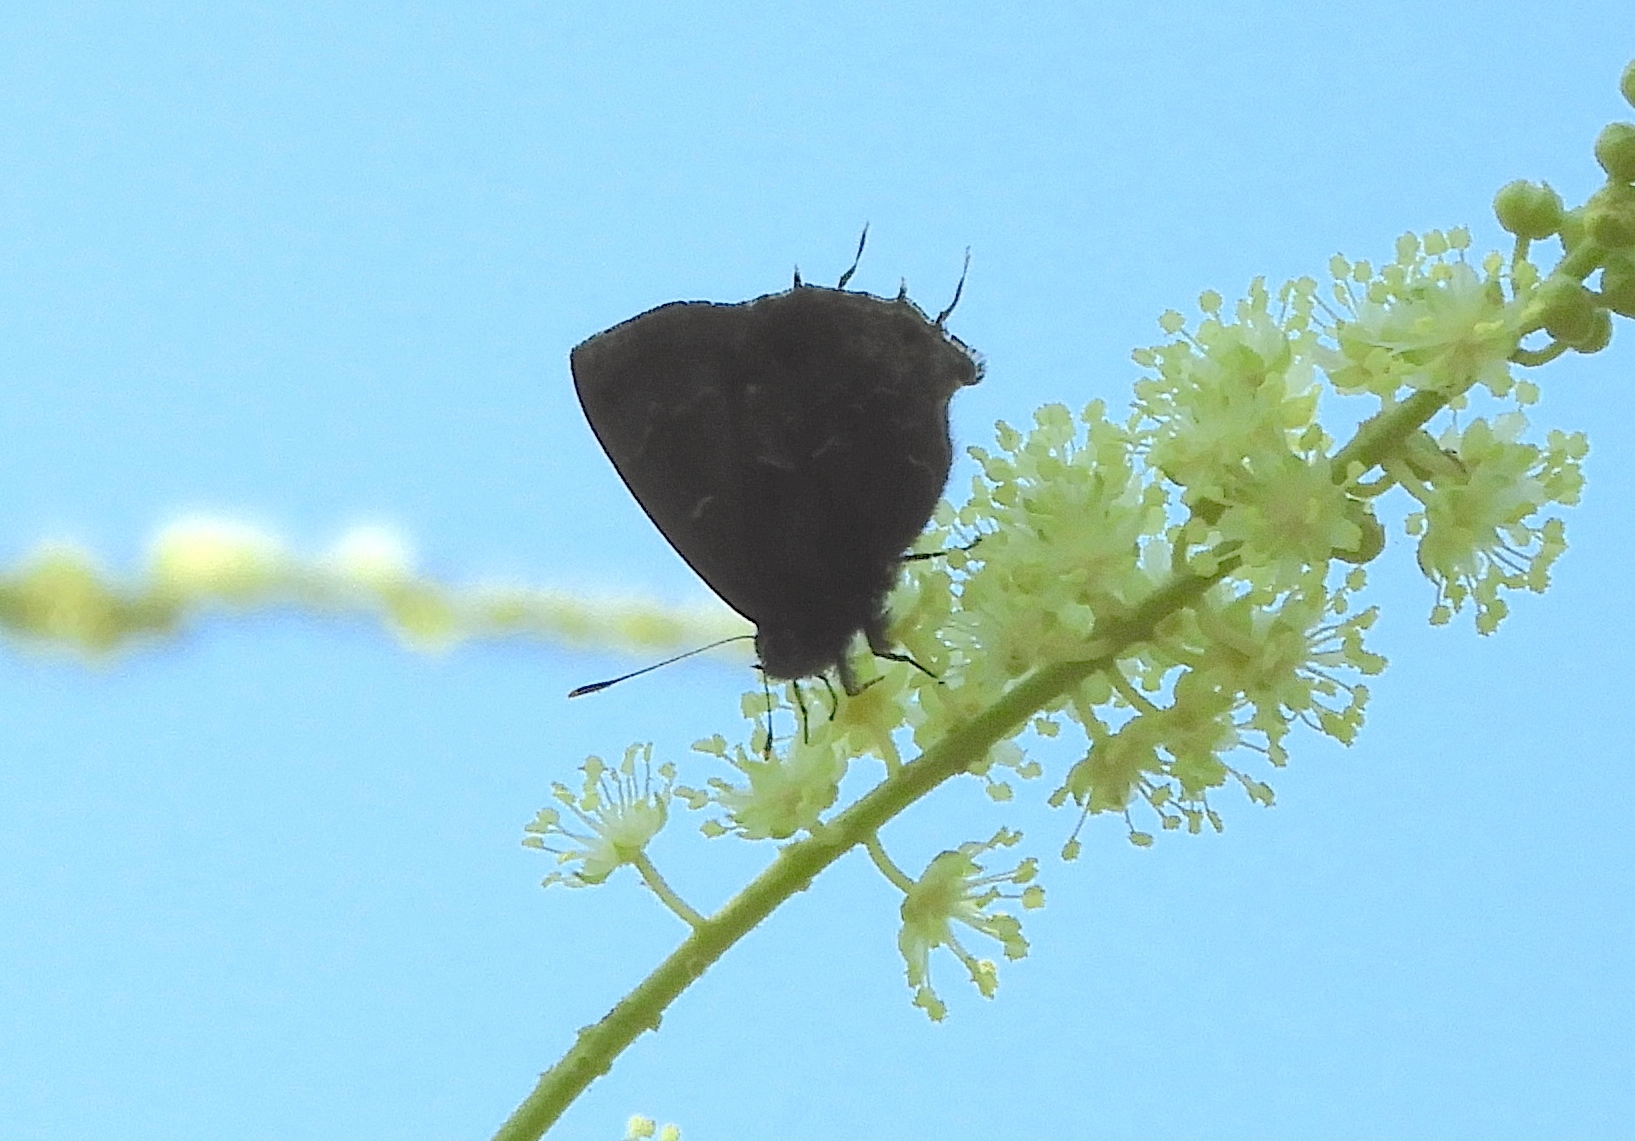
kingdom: Animalia
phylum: Arthropoda
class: Insecta
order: Lepidoptera
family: Lycaenidae
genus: Ocaria
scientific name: Ocaria ocrisia
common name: Black hairstreak
